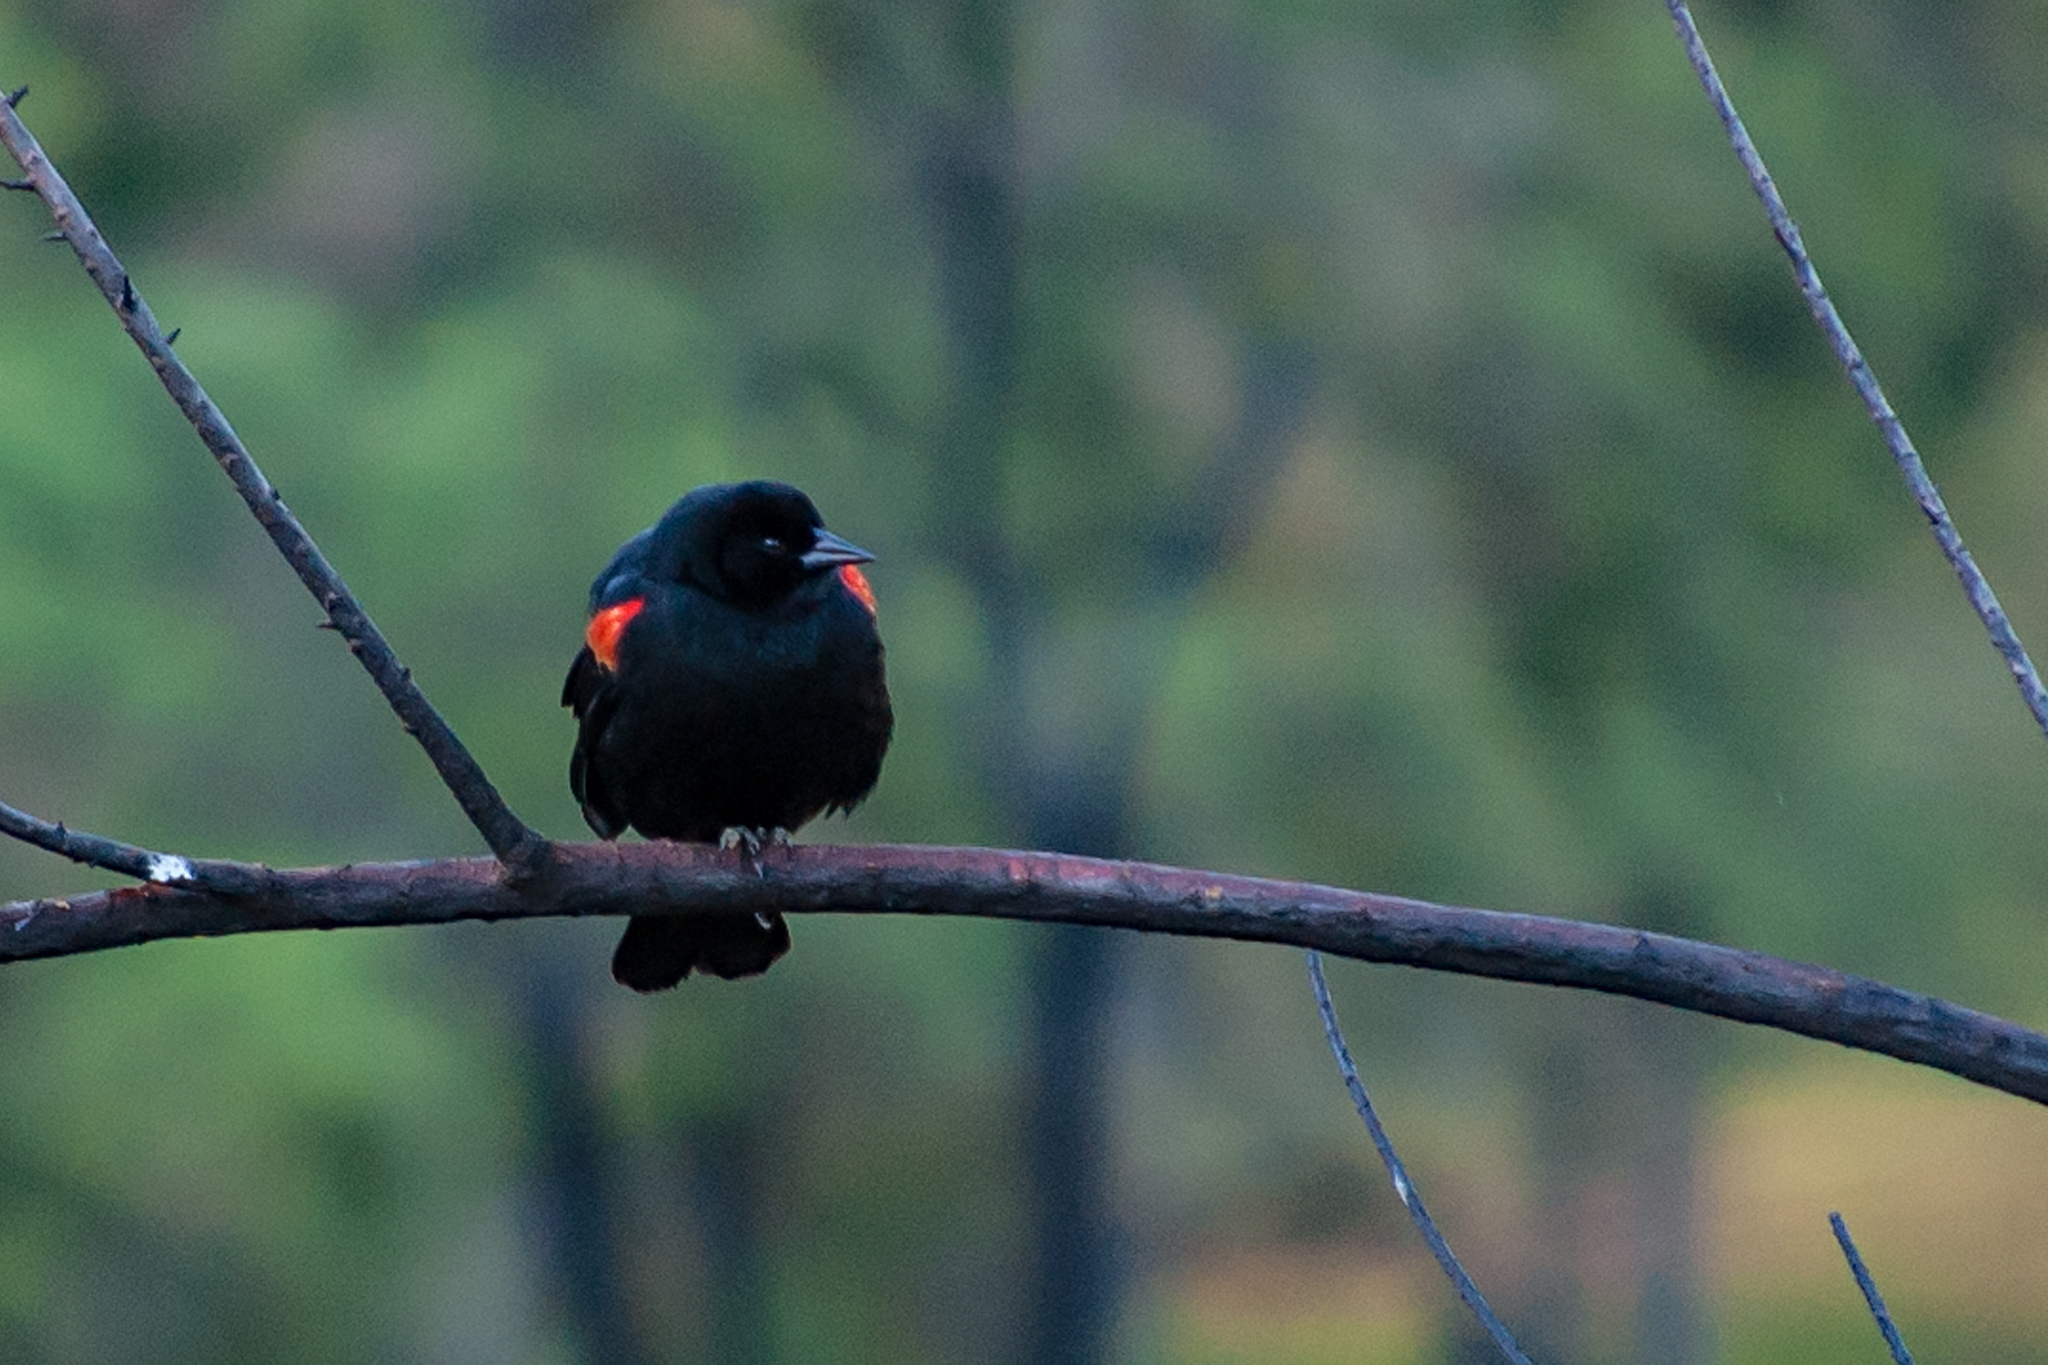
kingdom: Animalia
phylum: Chordata
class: Aves
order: Passeriformes
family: Icteridae
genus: Agelaius
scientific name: Agelaius phoeniceus
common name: Red-winged blackbird
